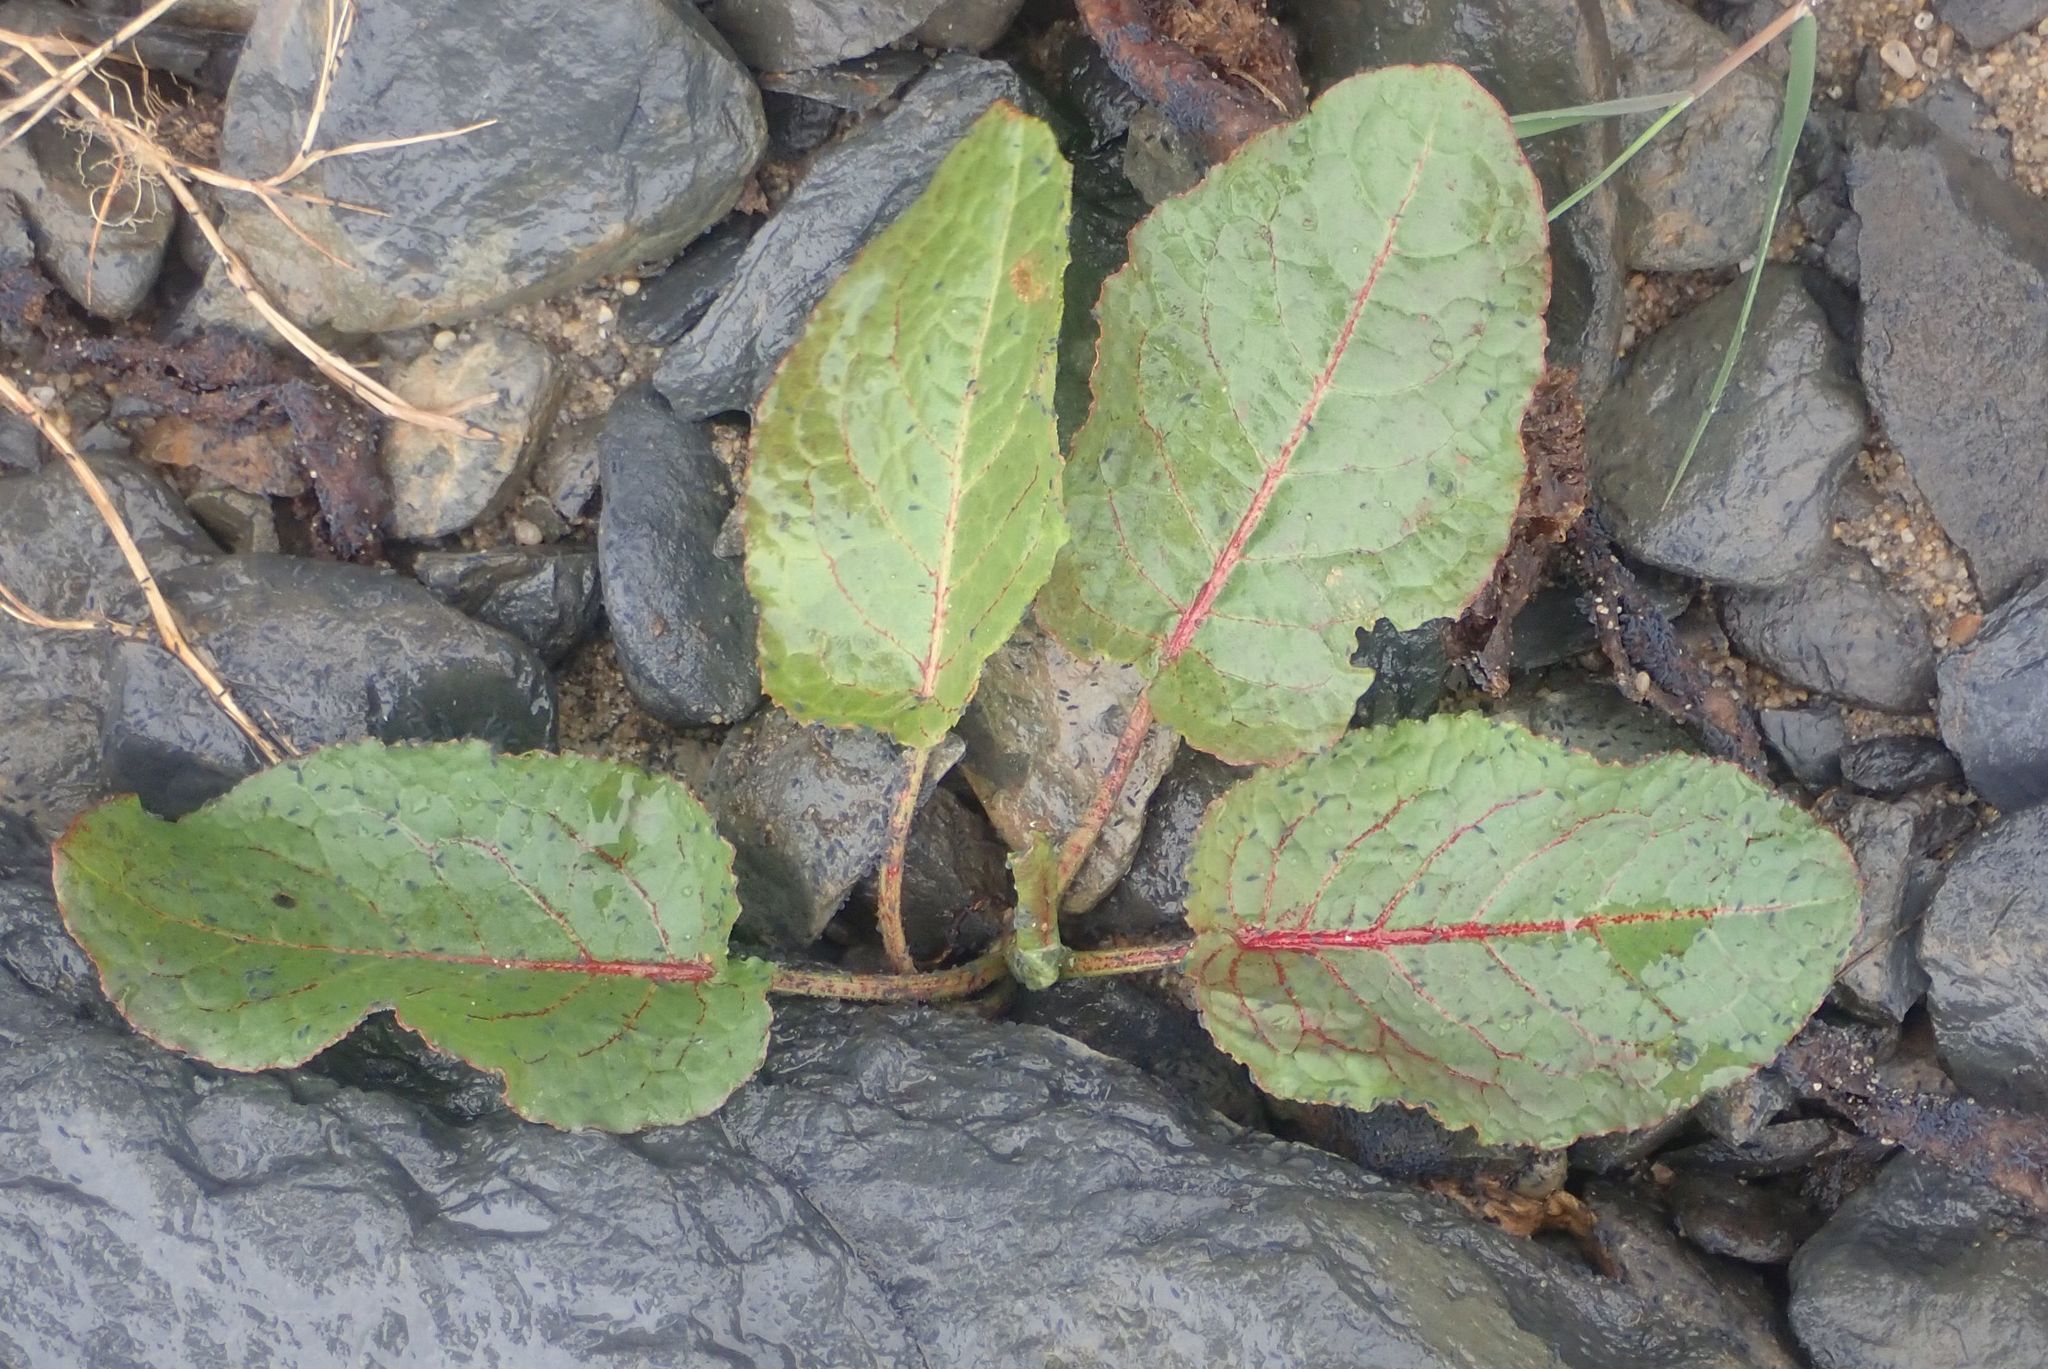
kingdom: Plantae
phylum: Tracheophyta
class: Magnoliopsida
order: Caryophyllales
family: Polygonaceae
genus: Rumex
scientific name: Rumex obtusifolius
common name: Bitter dock
